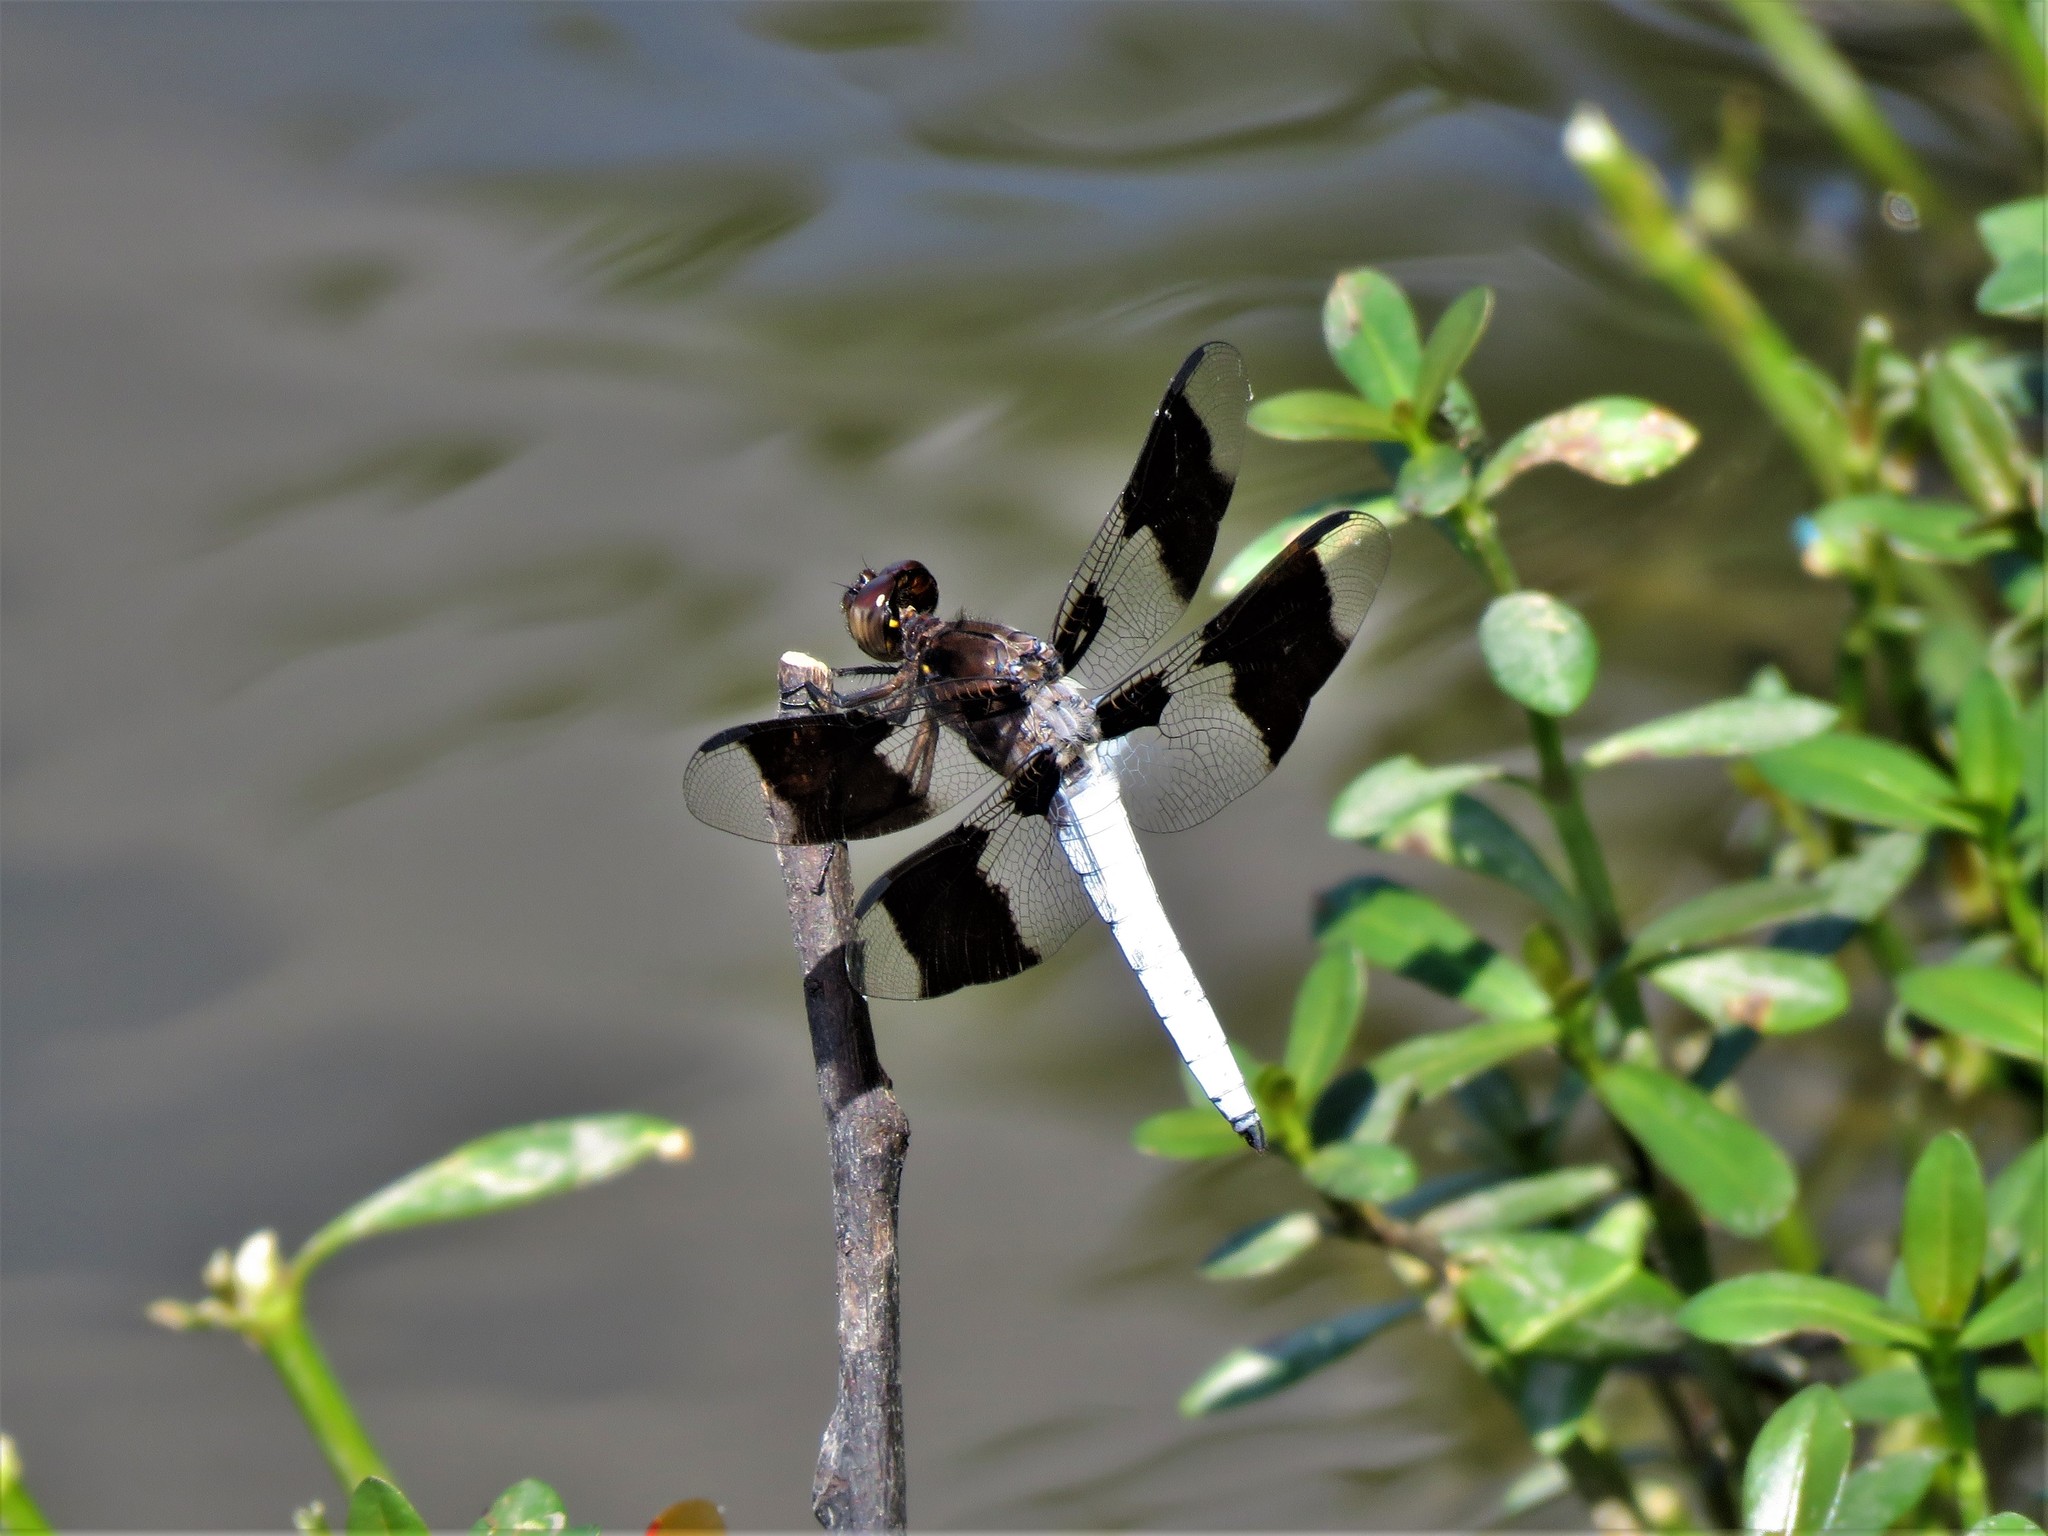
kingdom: Animalia
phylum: Arthropoda
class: Insecta
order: Odonata
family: Libellulidae
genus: Plathemis
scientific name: Plathemis lydia
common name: Common whitetail
